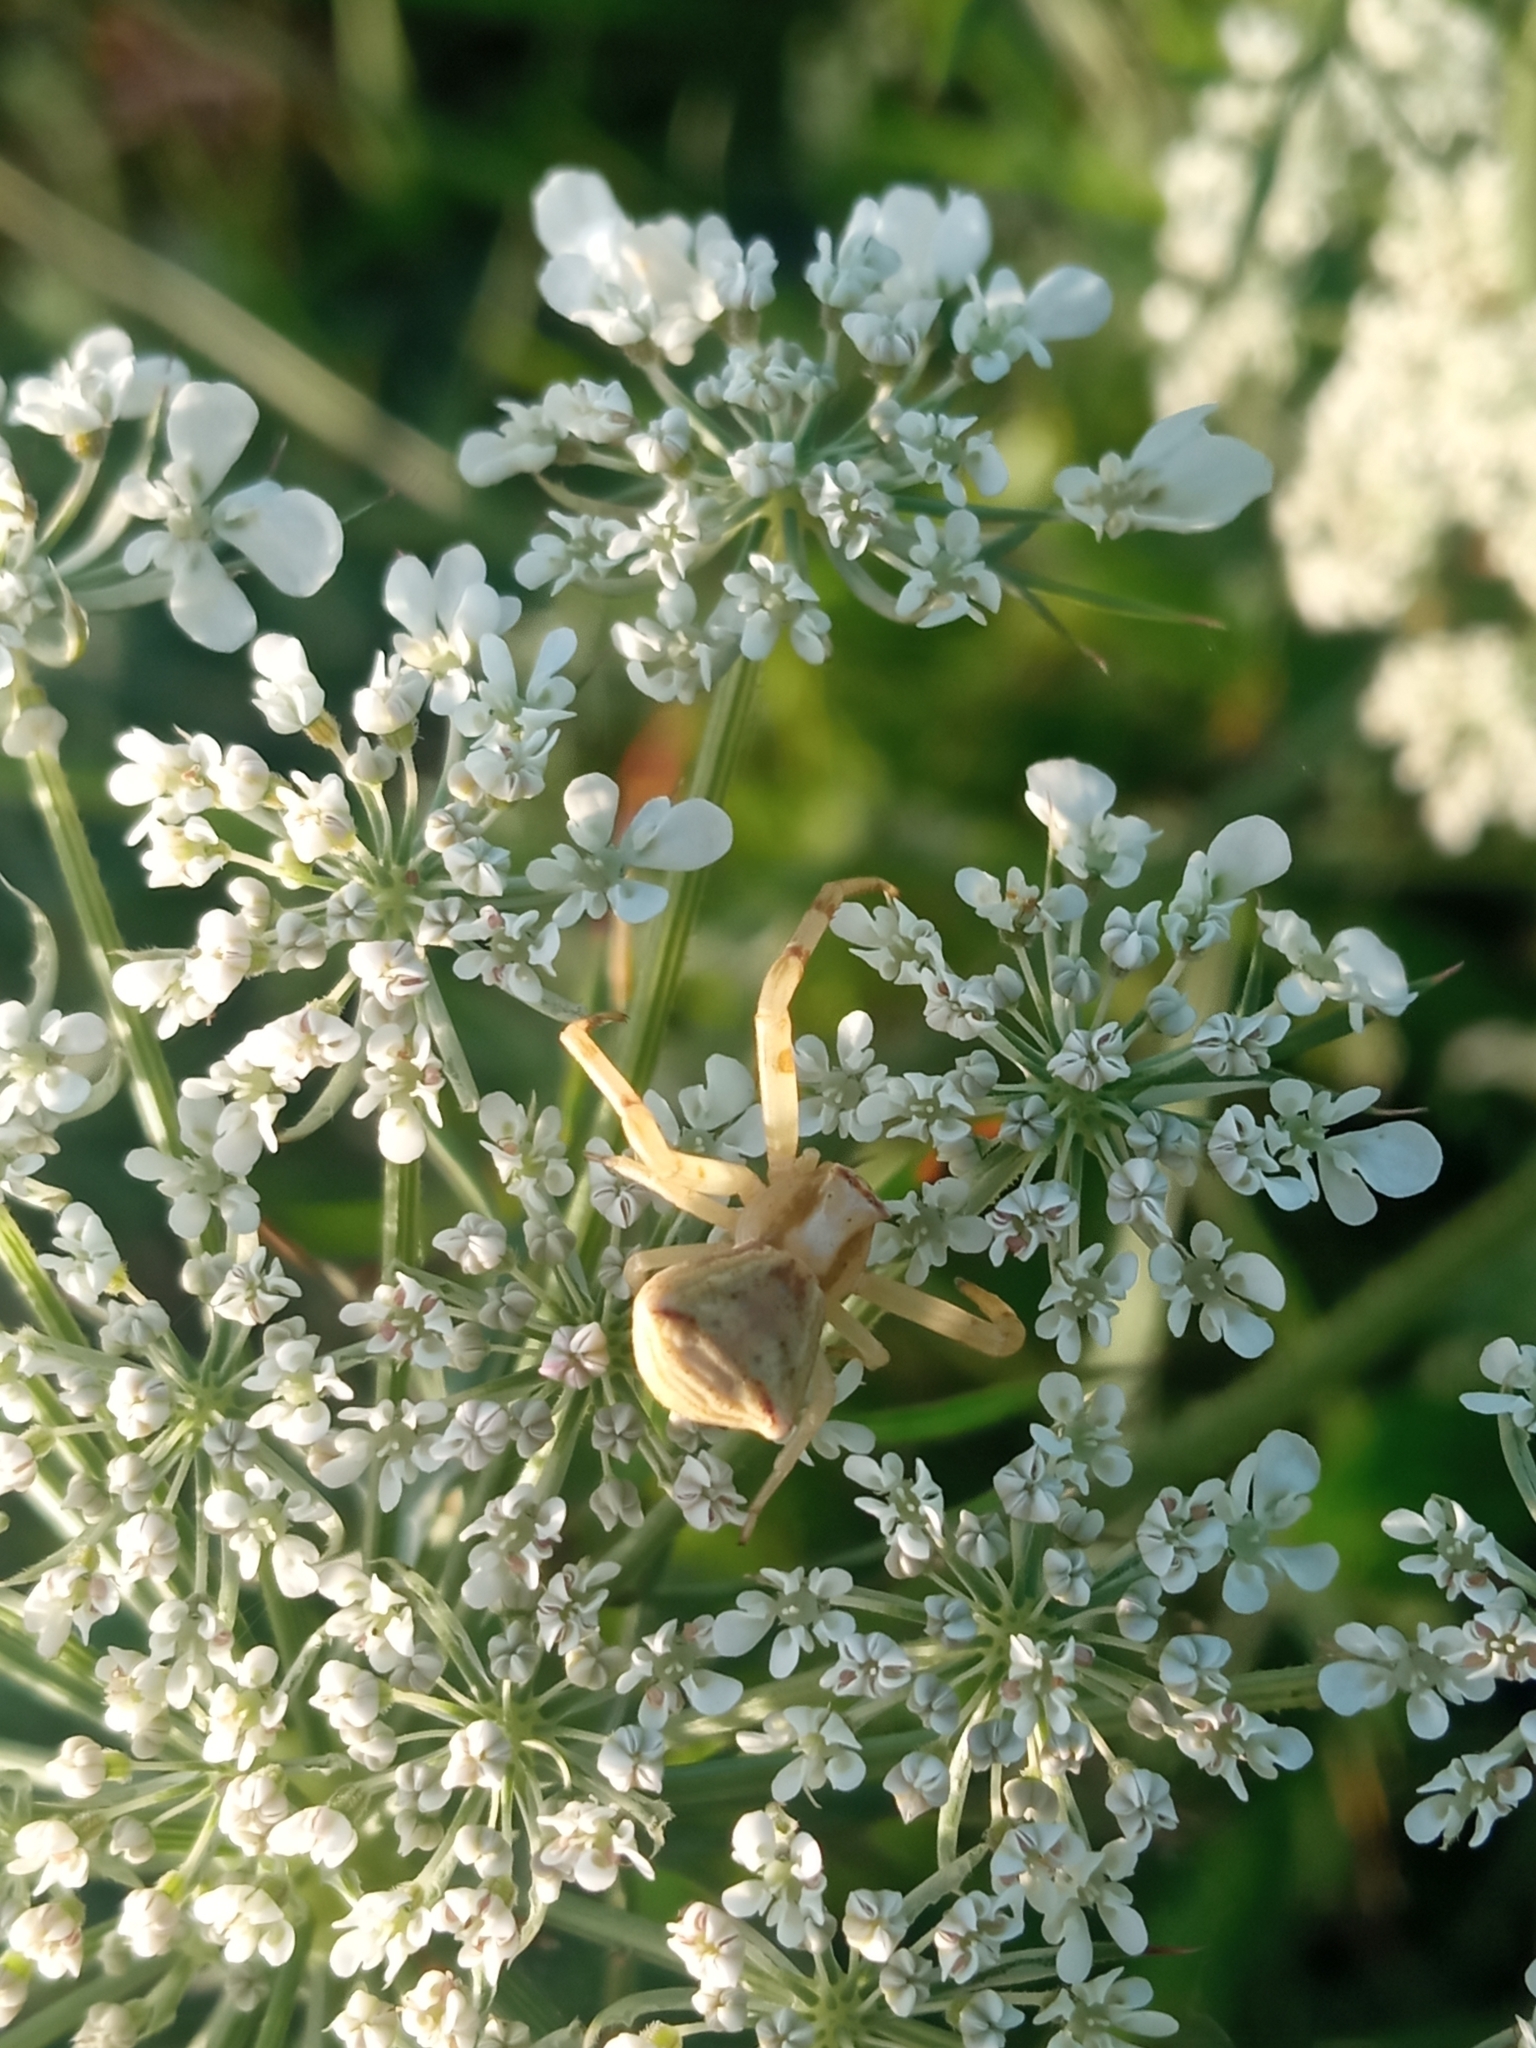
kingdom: Animalia
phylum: Arthropoda
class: Arachnida
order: Araneae
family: Thomisidae
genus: Thomisus
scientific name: Thomisus onustus
